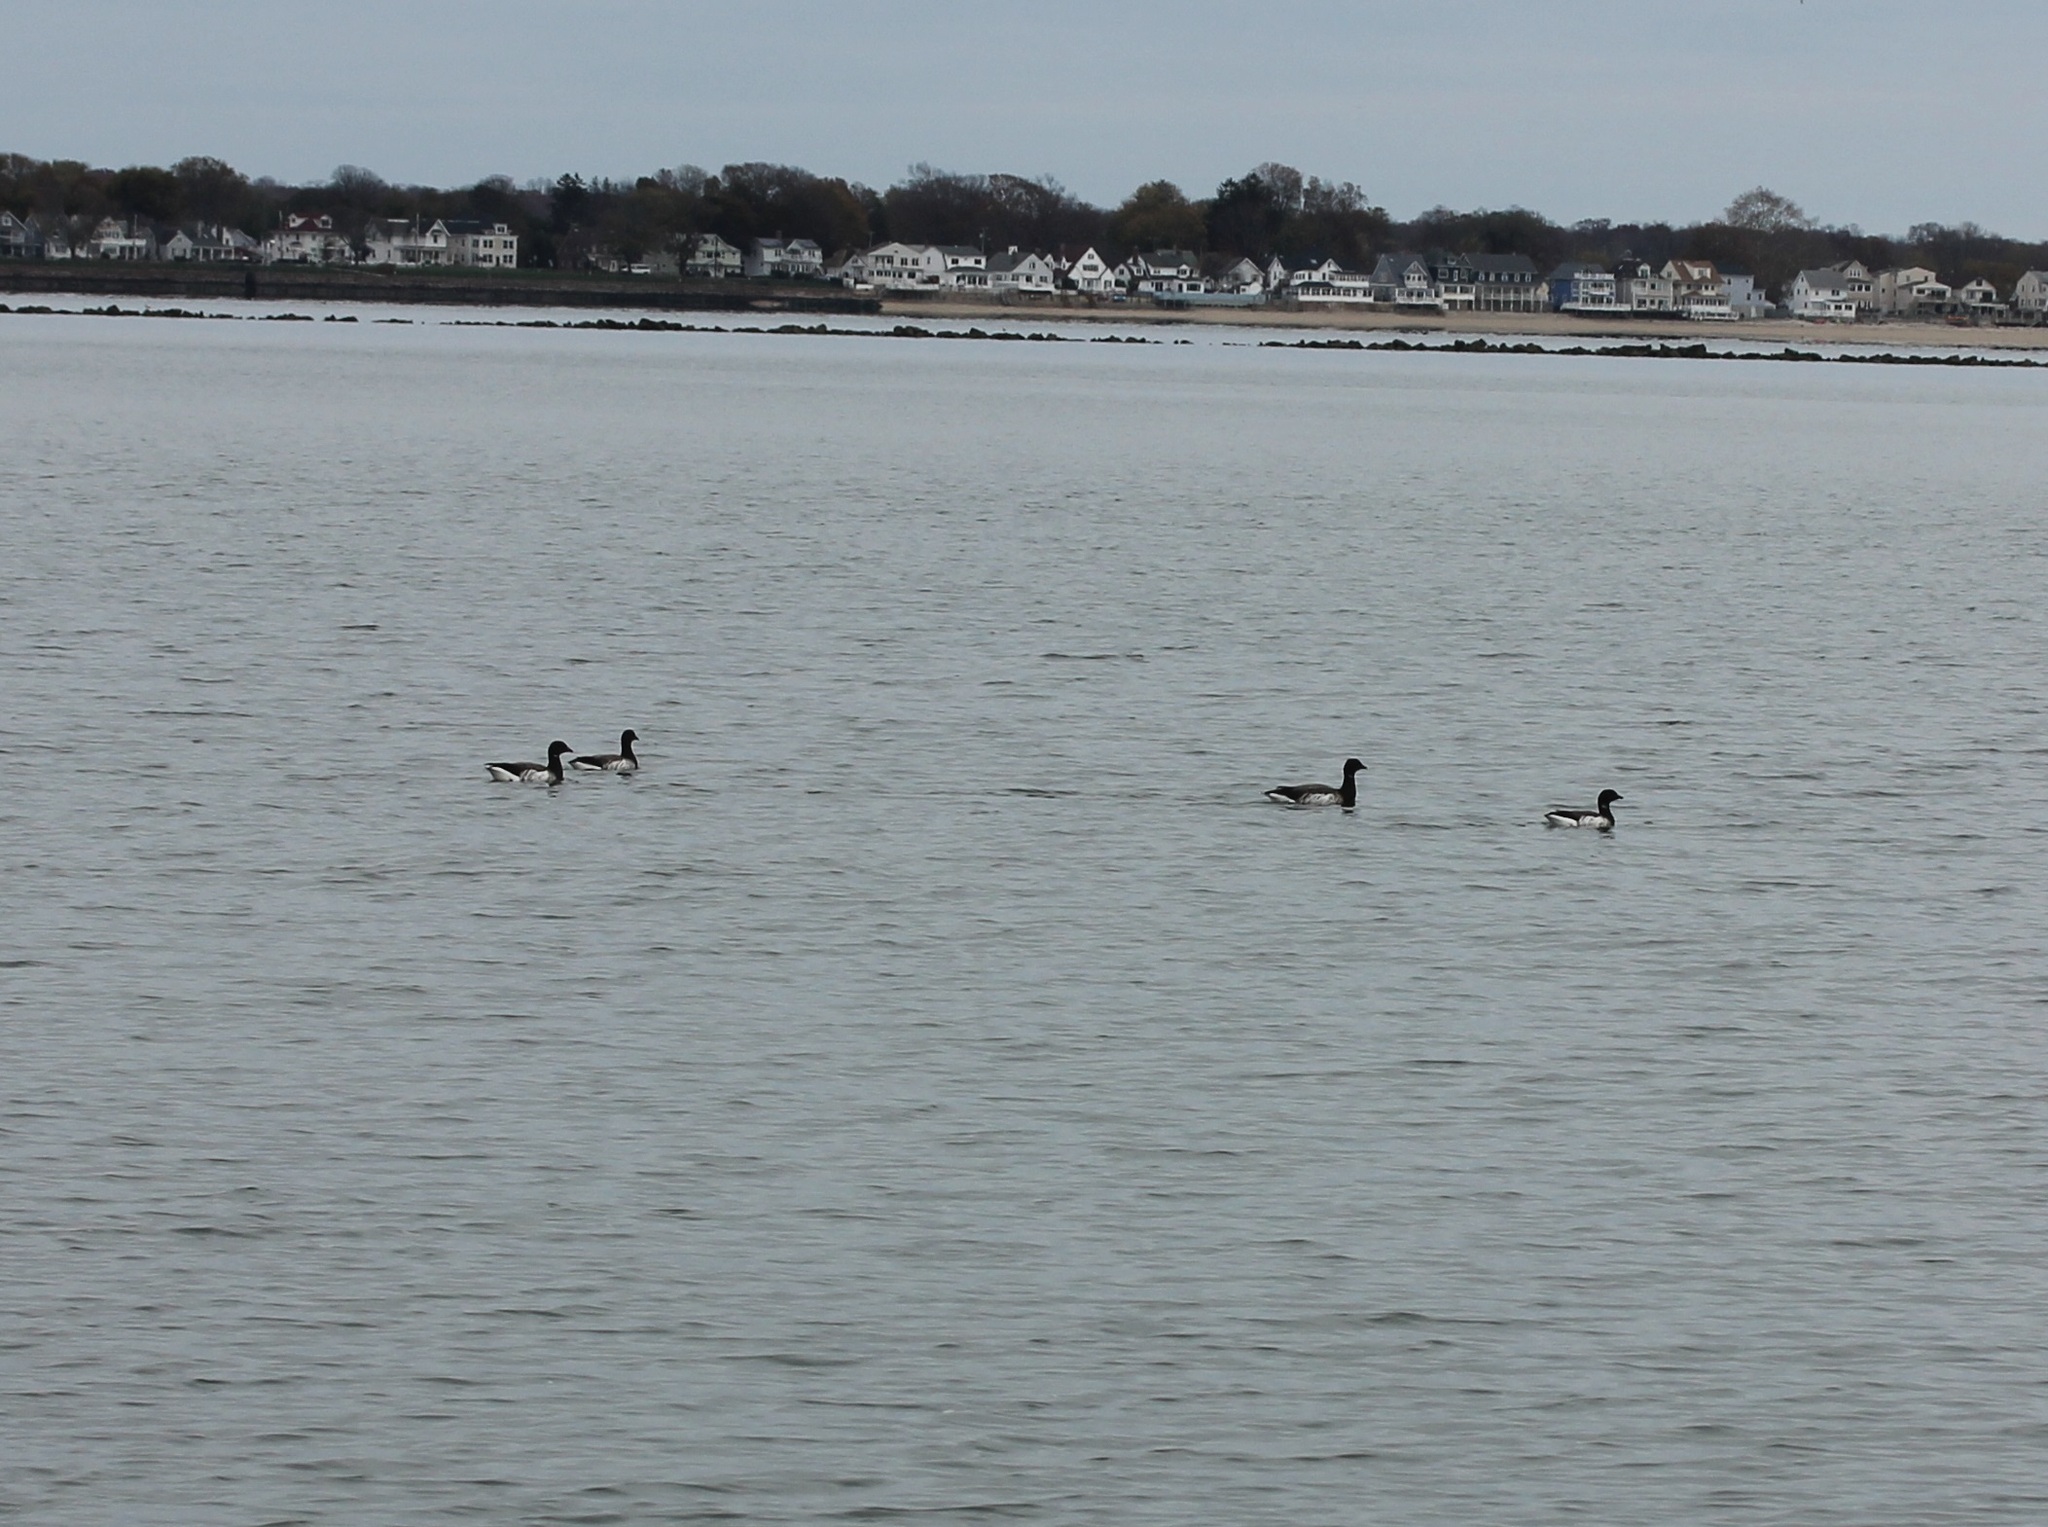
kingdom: Animalia
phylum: Chordata
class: Aves
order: Anseriformes
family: Anatidae
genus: Branta
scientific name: Branta bernicla
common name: Brant goose
